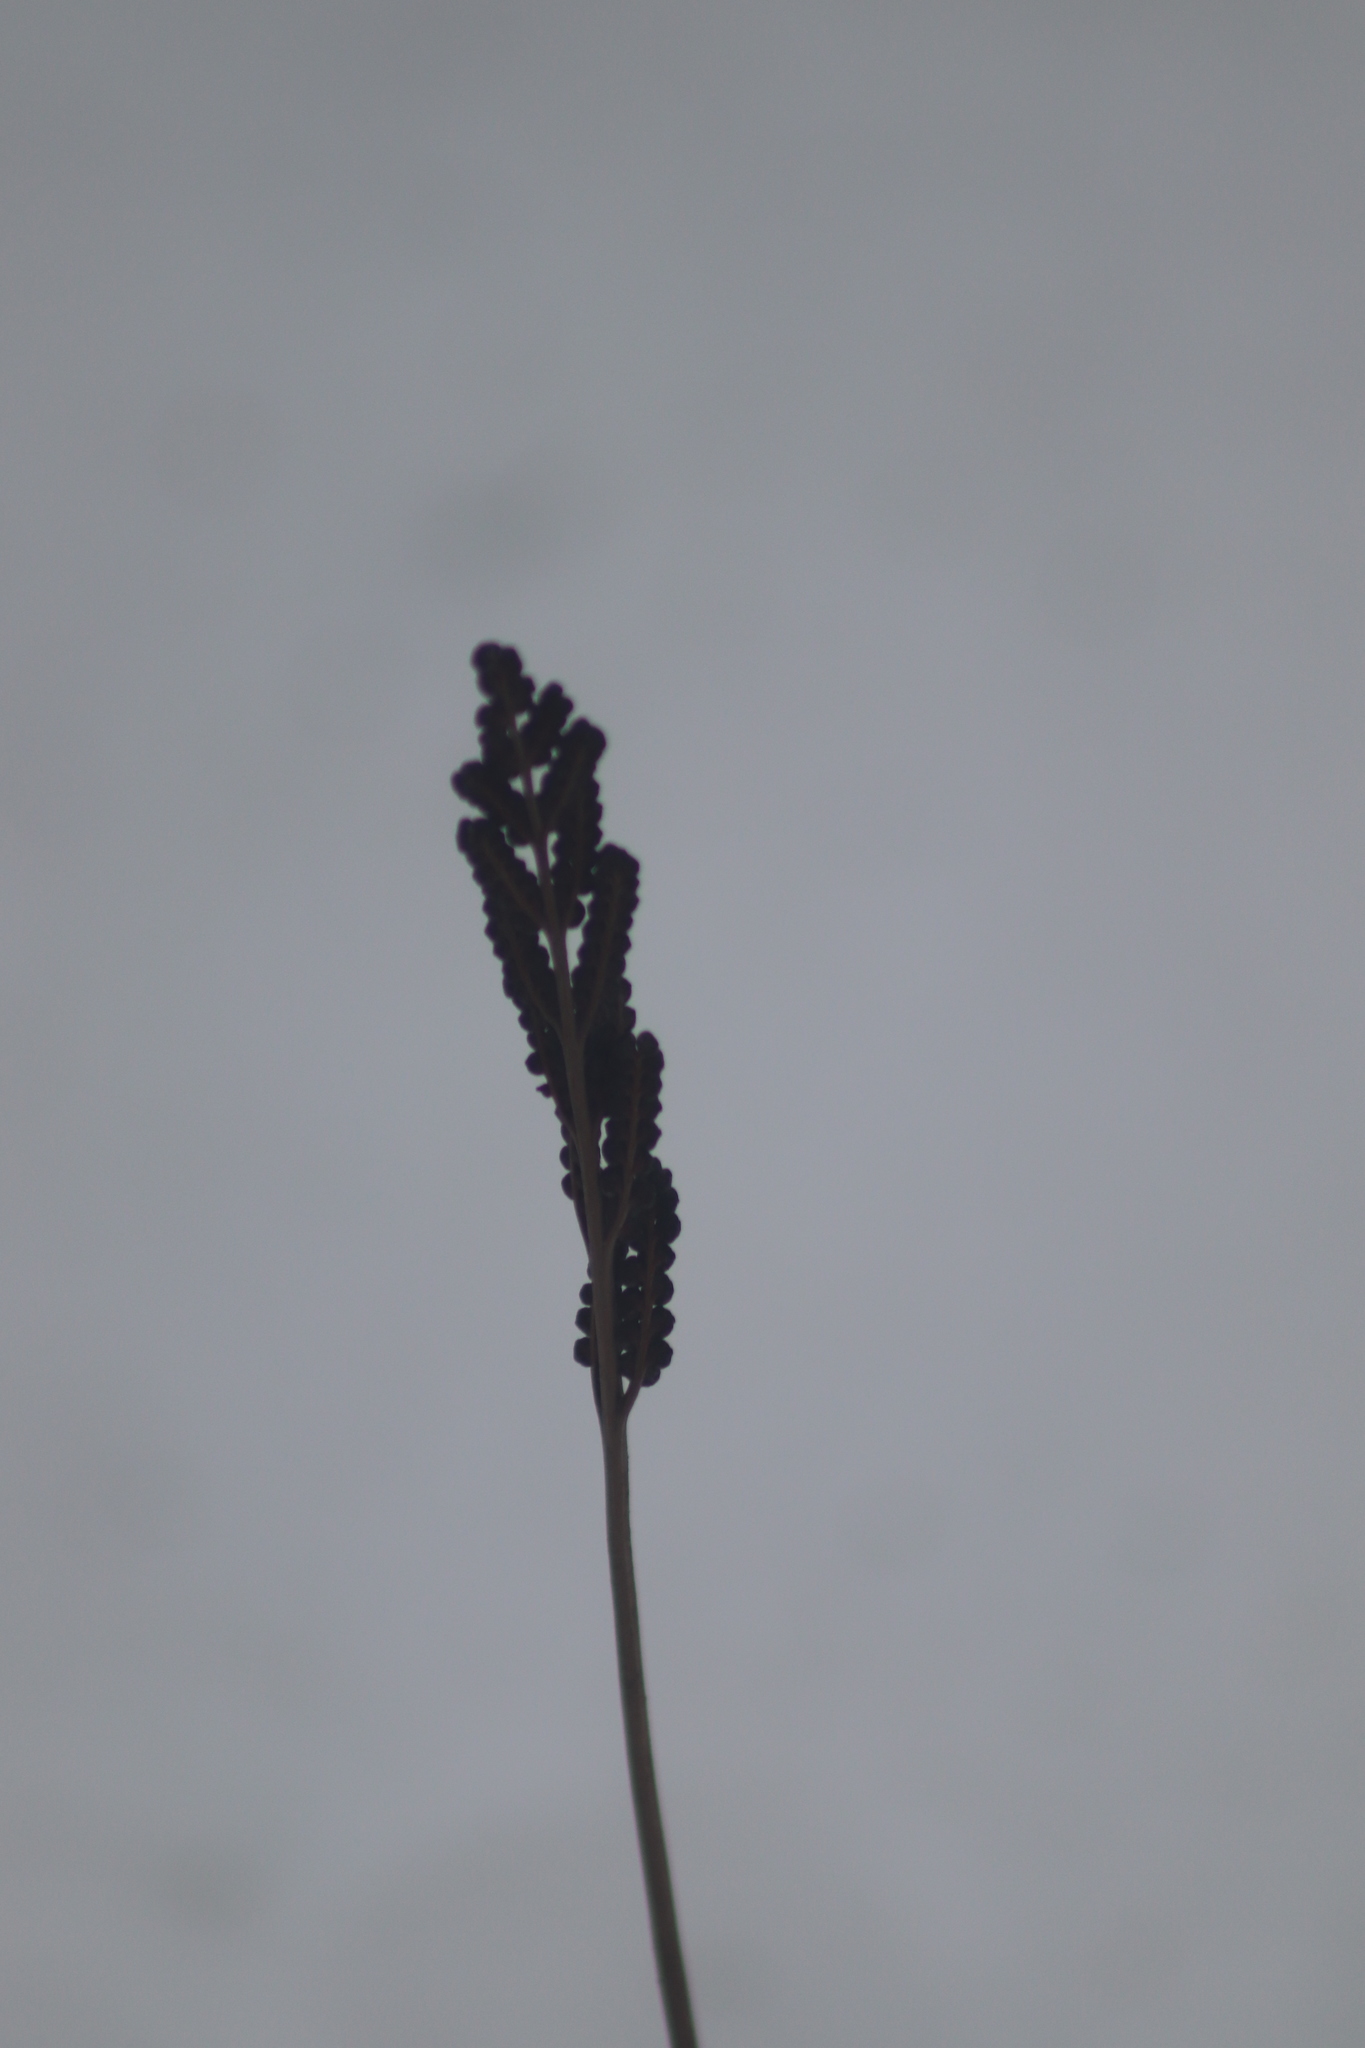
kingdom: Plantae
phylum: Tracheophyta
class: Polypodiopsida
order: Polypodiales
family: Onocleaceae
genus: Onoclea
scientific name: Onoclea sensibilis
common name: Sensitive fern
